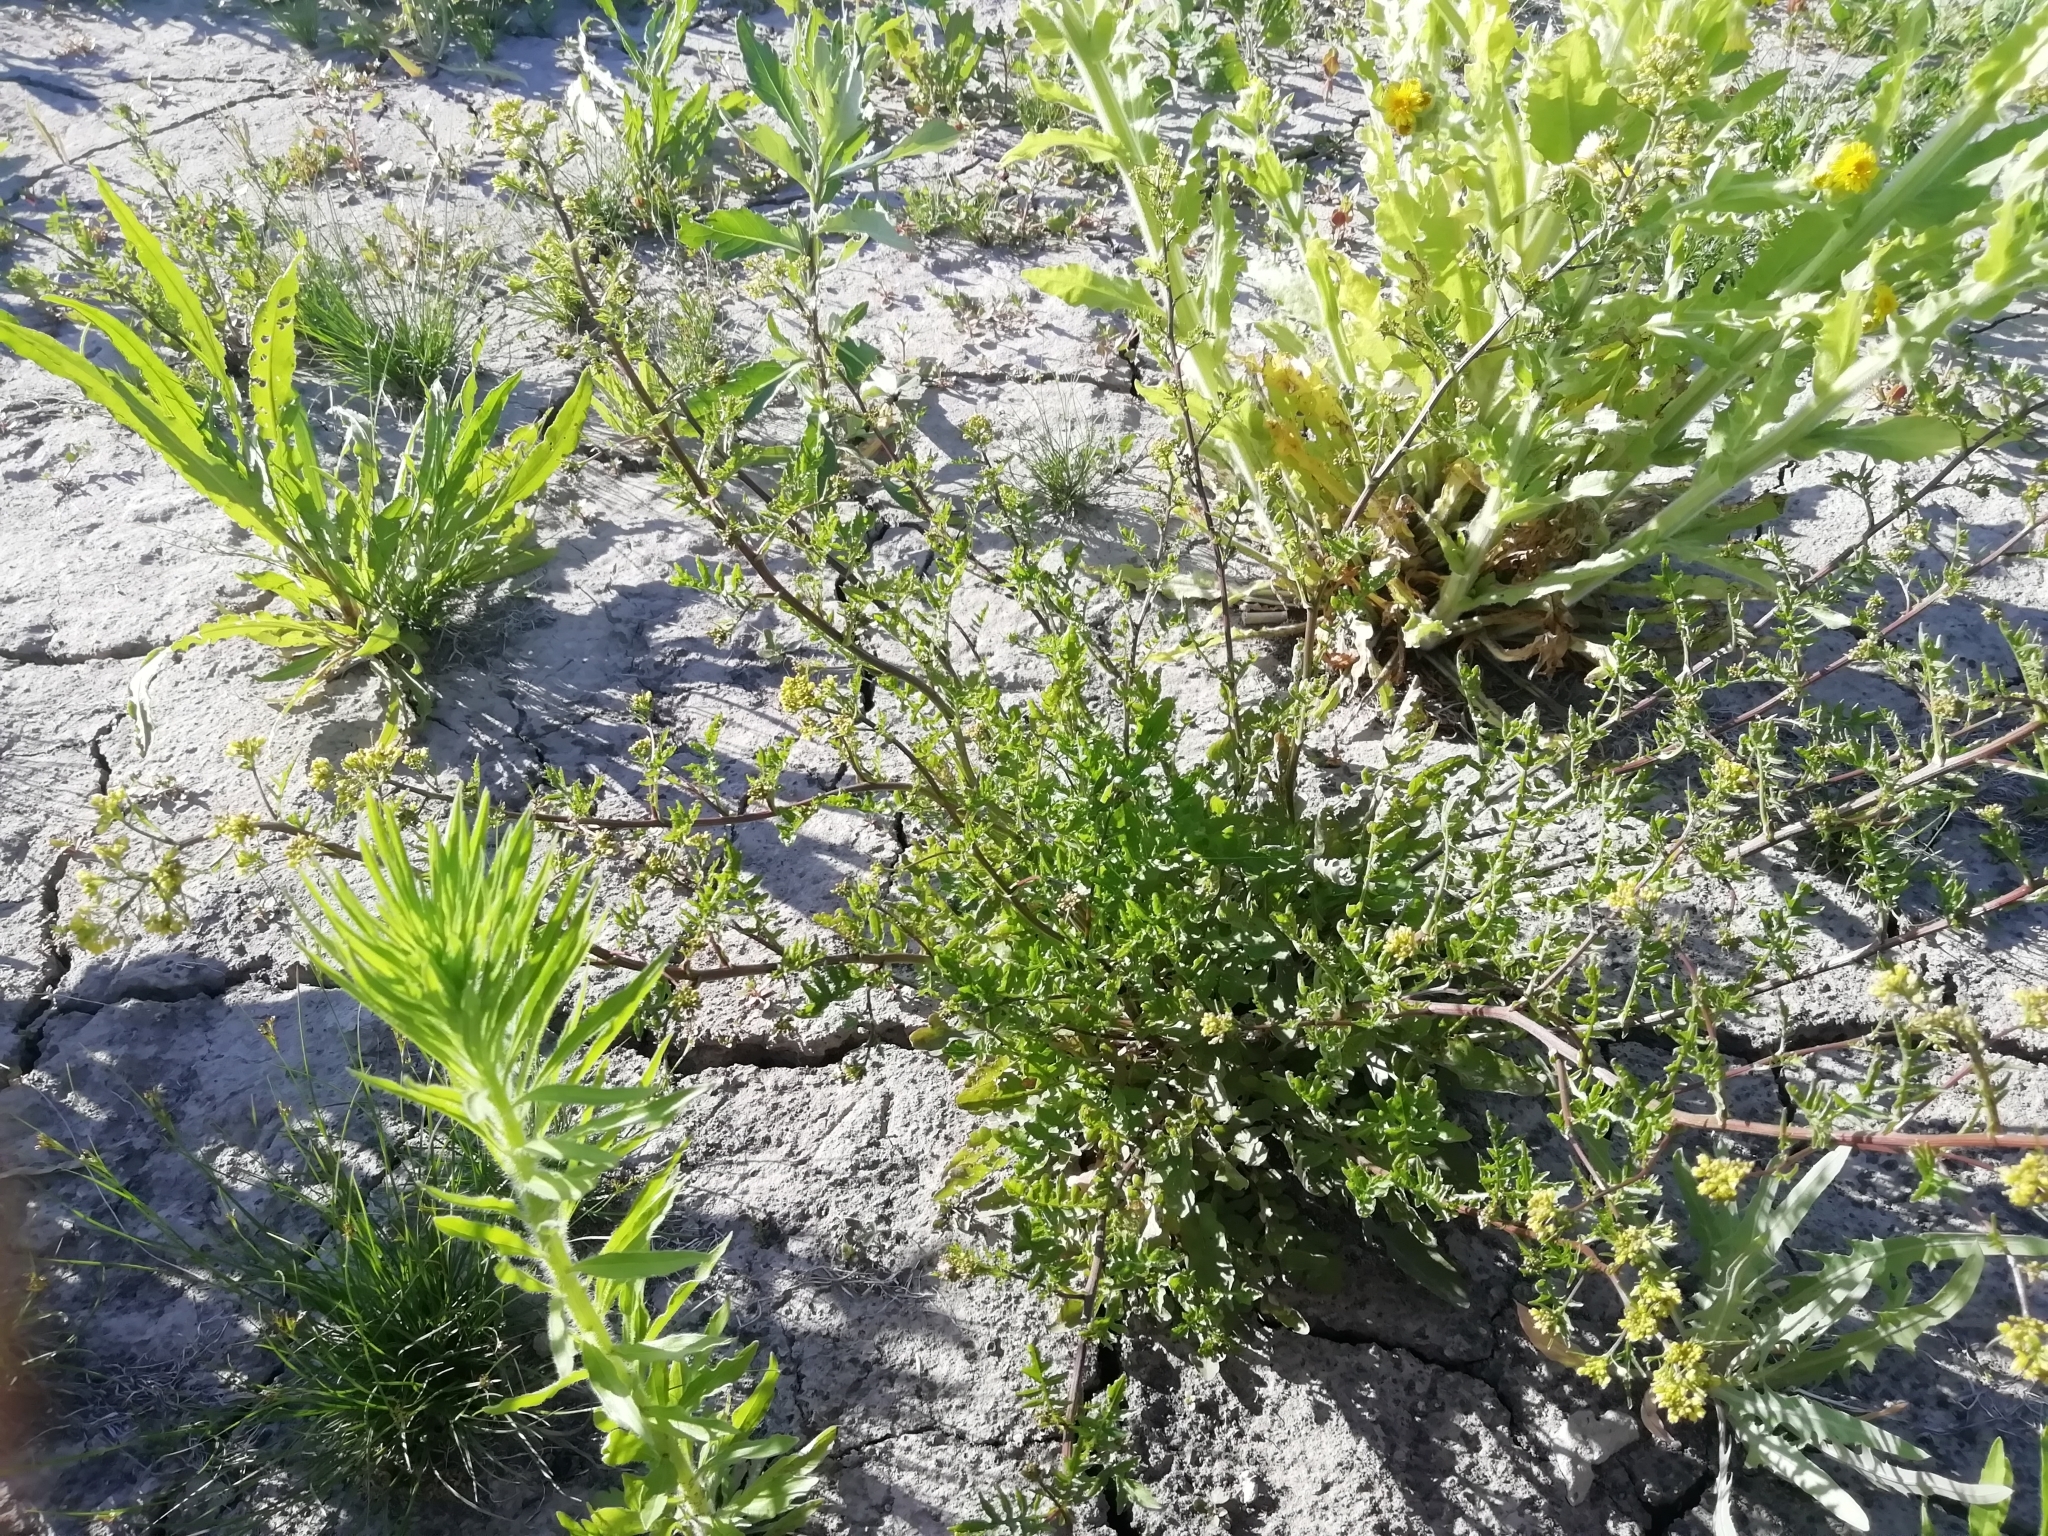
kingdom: Plantae
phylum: Tracheophyta
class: Magnoliopsida
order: Brassicales
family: Brassicaceae
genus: Rorippa
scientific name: Rorippa palustris
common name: Marsh yellow-cress
